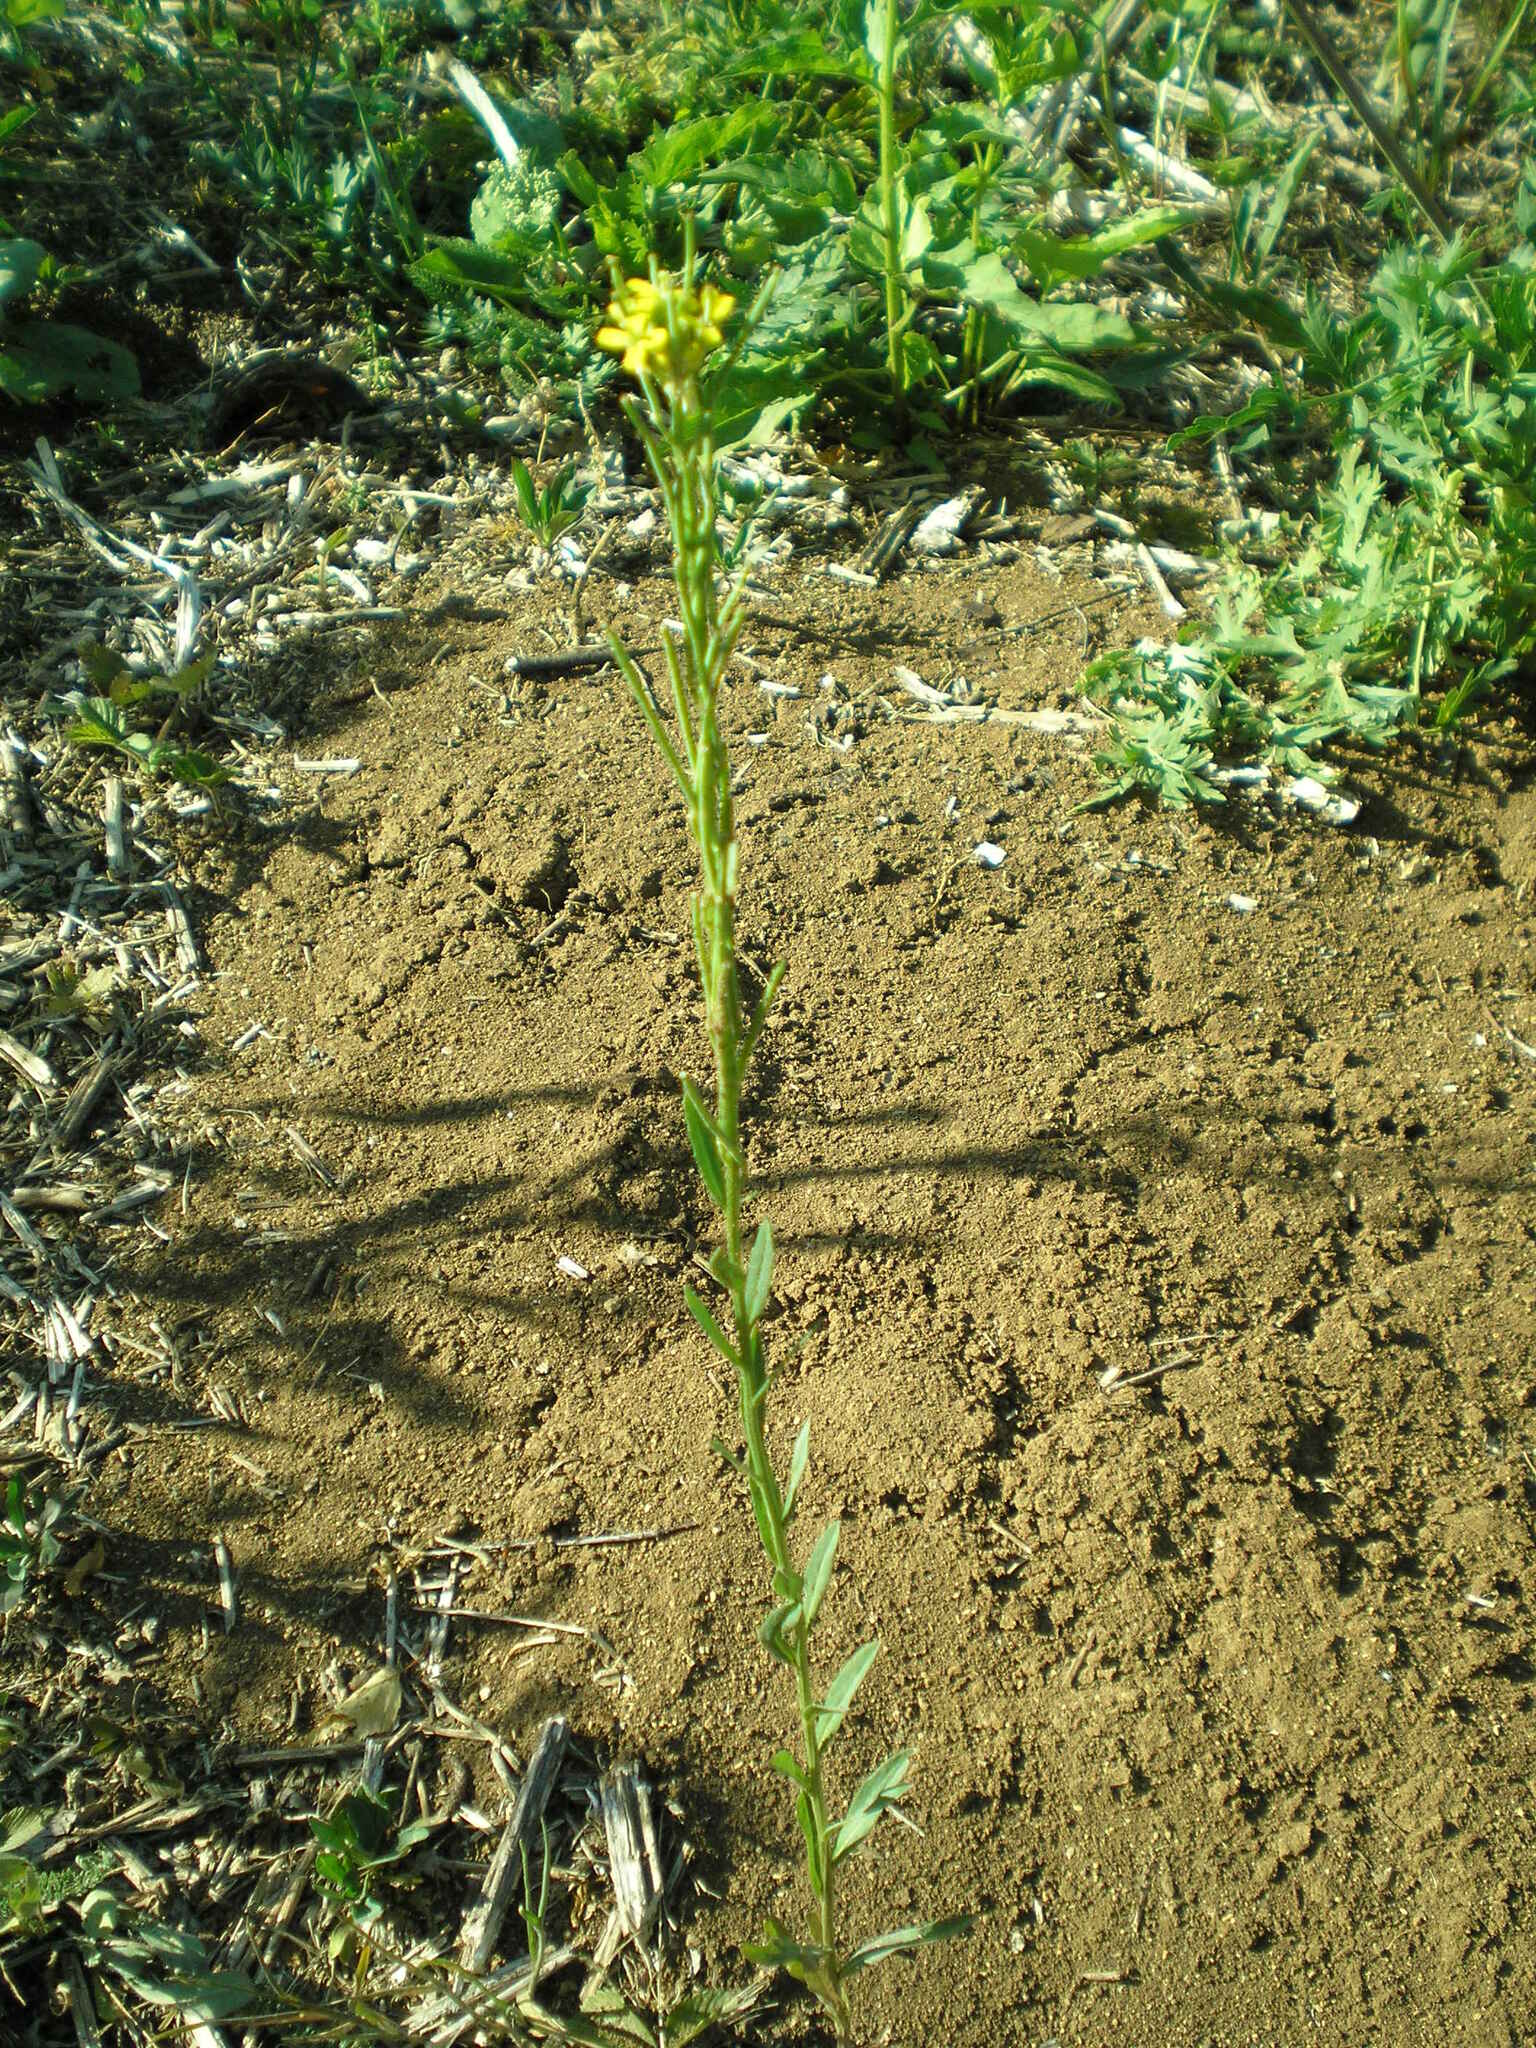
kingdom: Plantae
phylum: Tracheophyta
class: Magnoliopsida
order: Brassicales
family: Brassicaceae
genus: Erysimum
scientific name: Erysimum hieraciifolium
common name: European wallflower
